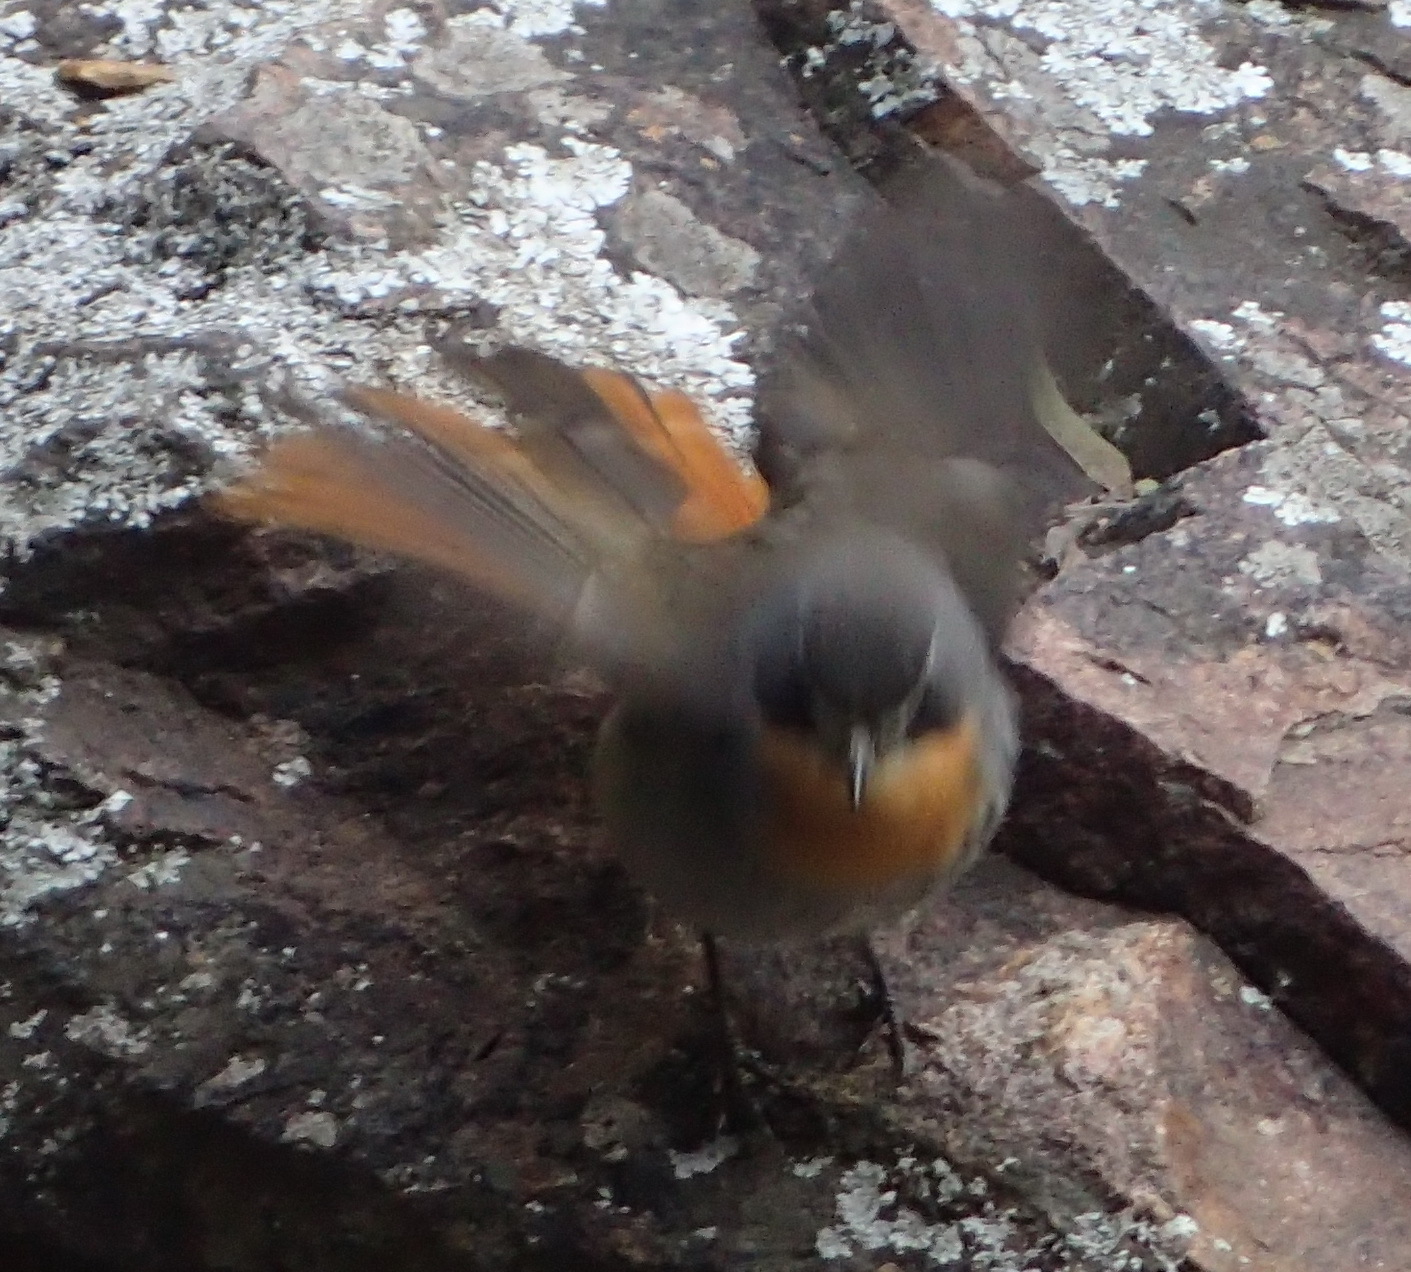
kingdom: Animalia
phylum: Chordata
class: Aves
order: Passeriformes
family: Muscicapidae
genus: Cossypha
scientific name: Cossypha caffra
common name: Cape robin-chat
